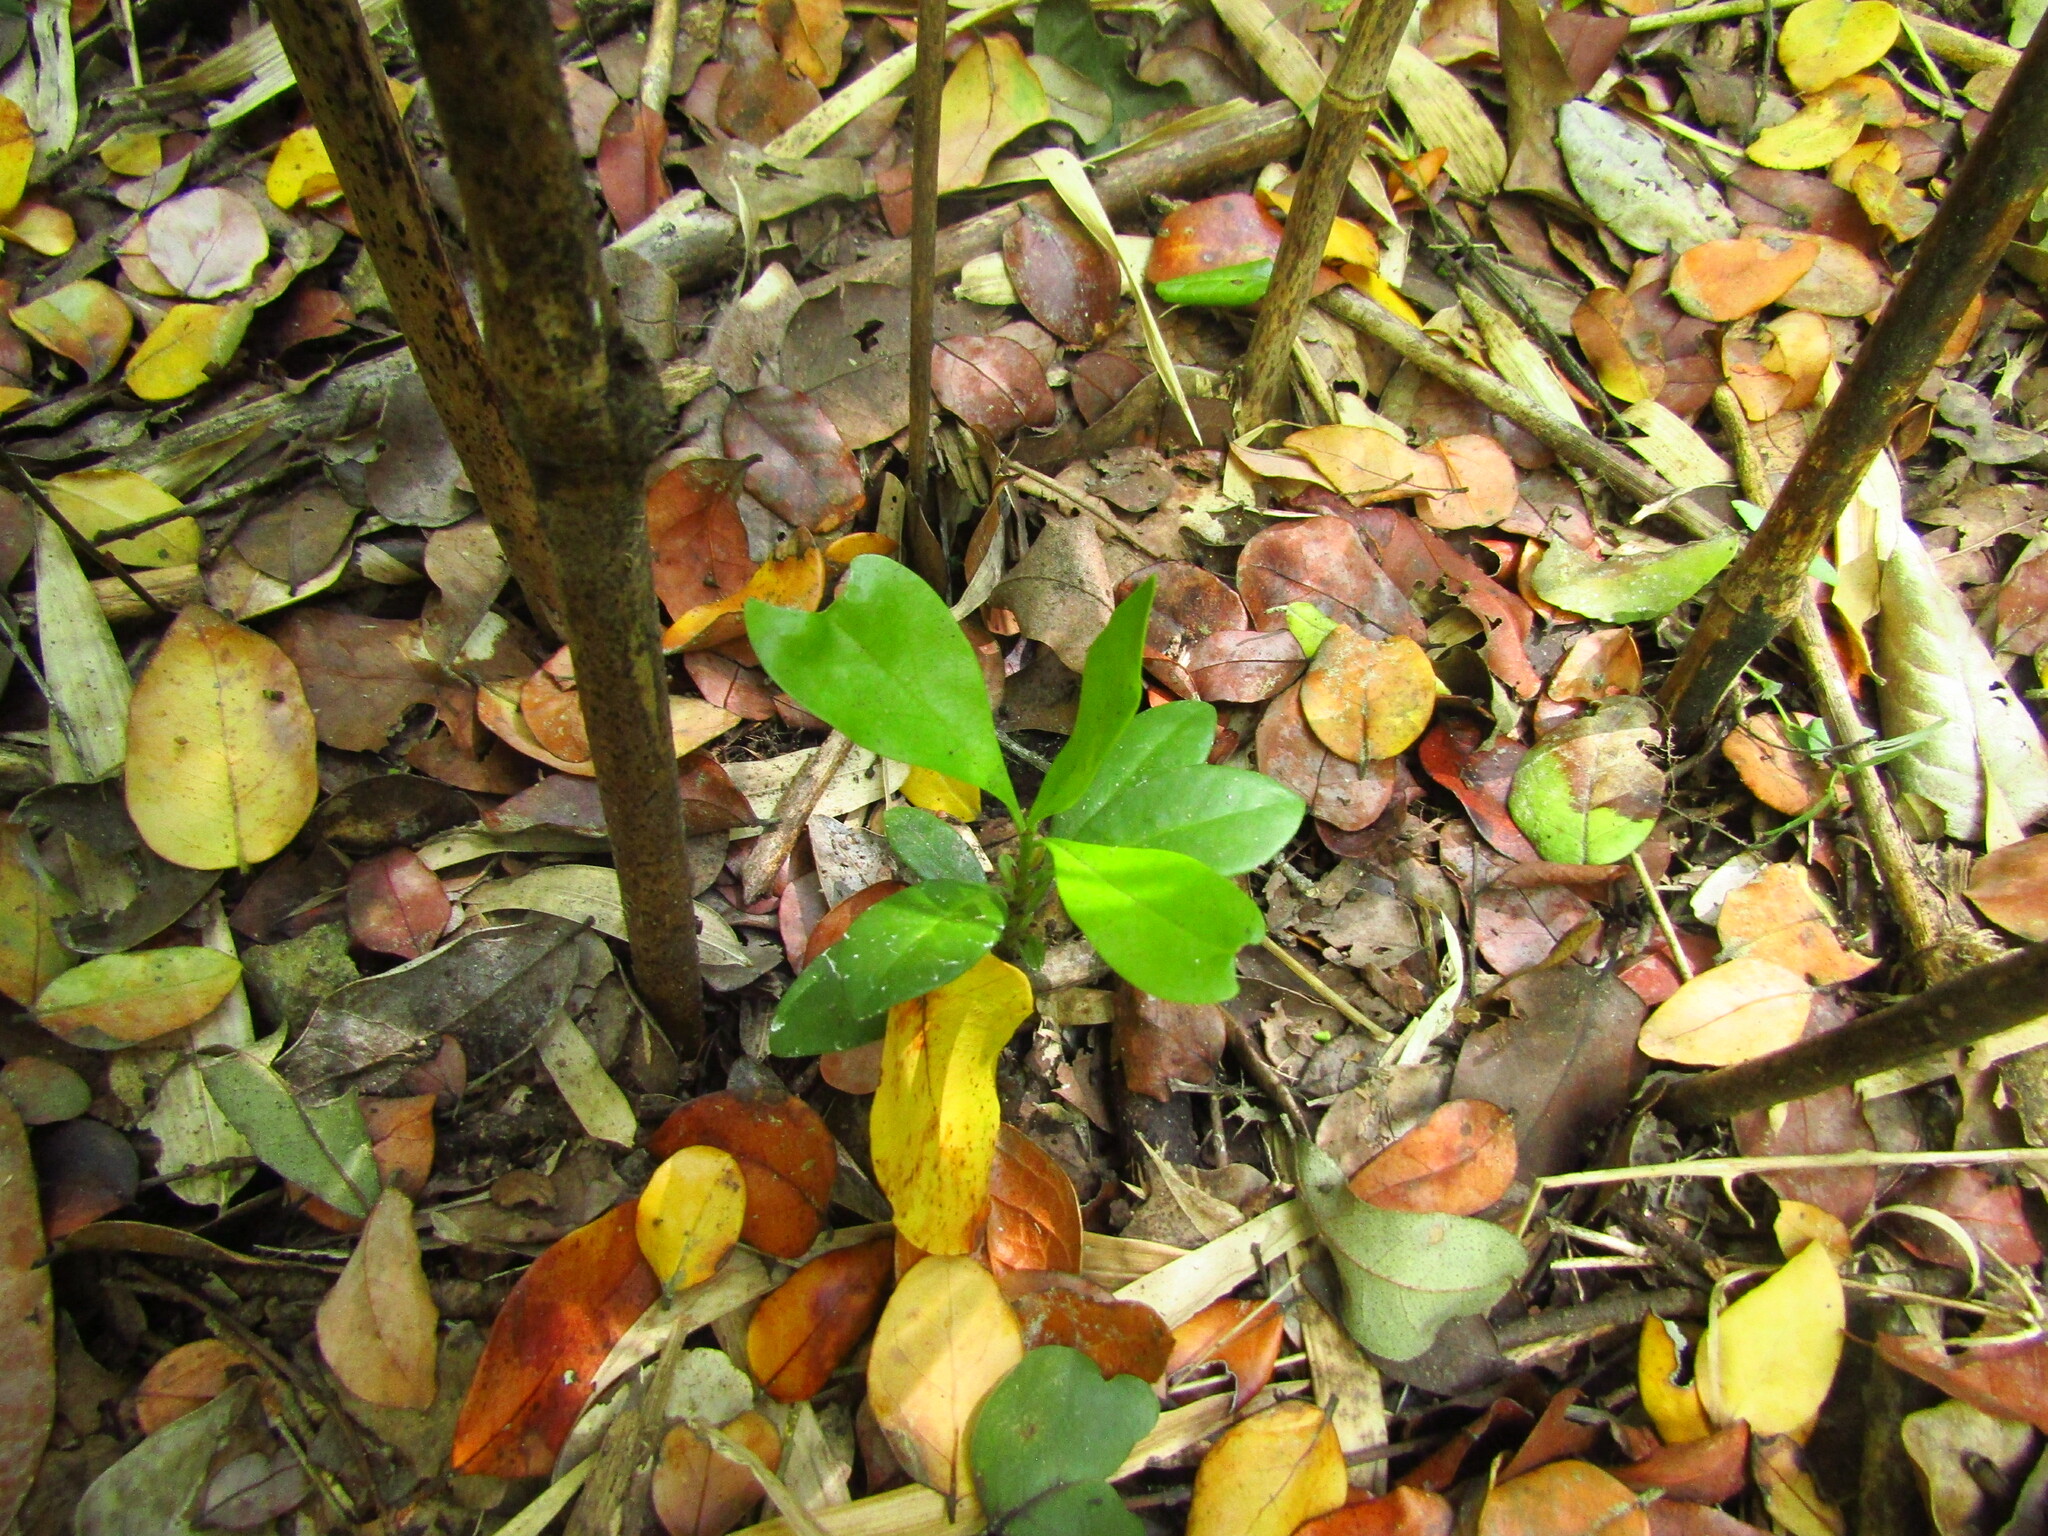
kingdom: Plantae
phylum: Tracheophyta
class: Magnoliopsida
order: Laurales
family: Gomortegaceae
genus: Gomortega
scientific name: Gomortega keule
